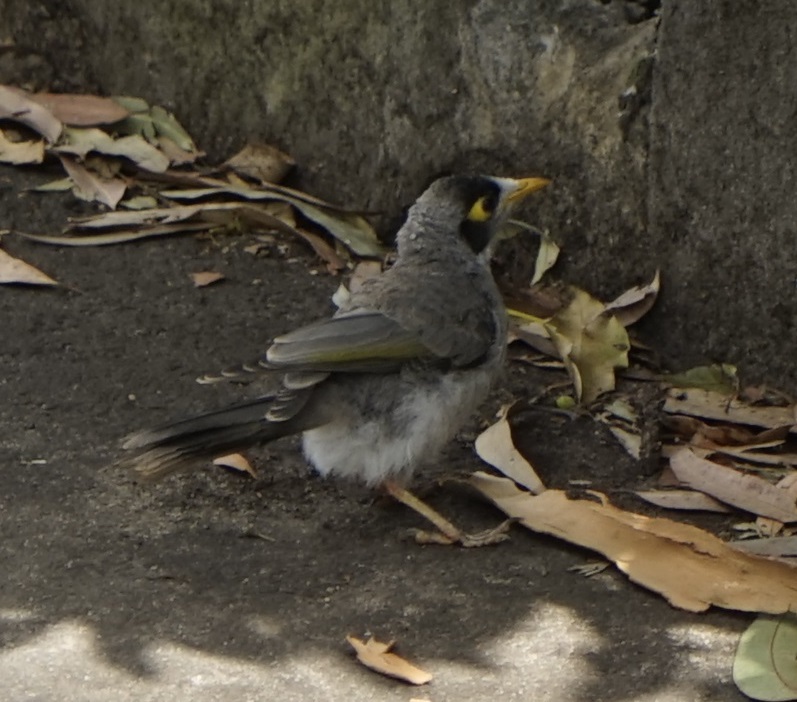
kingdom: Animalia
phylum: Chordata
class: Aves
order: Passeriformes
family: Meliphagidae
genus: Manorina
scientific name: Manorina melanocephala
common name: Noisy miner
